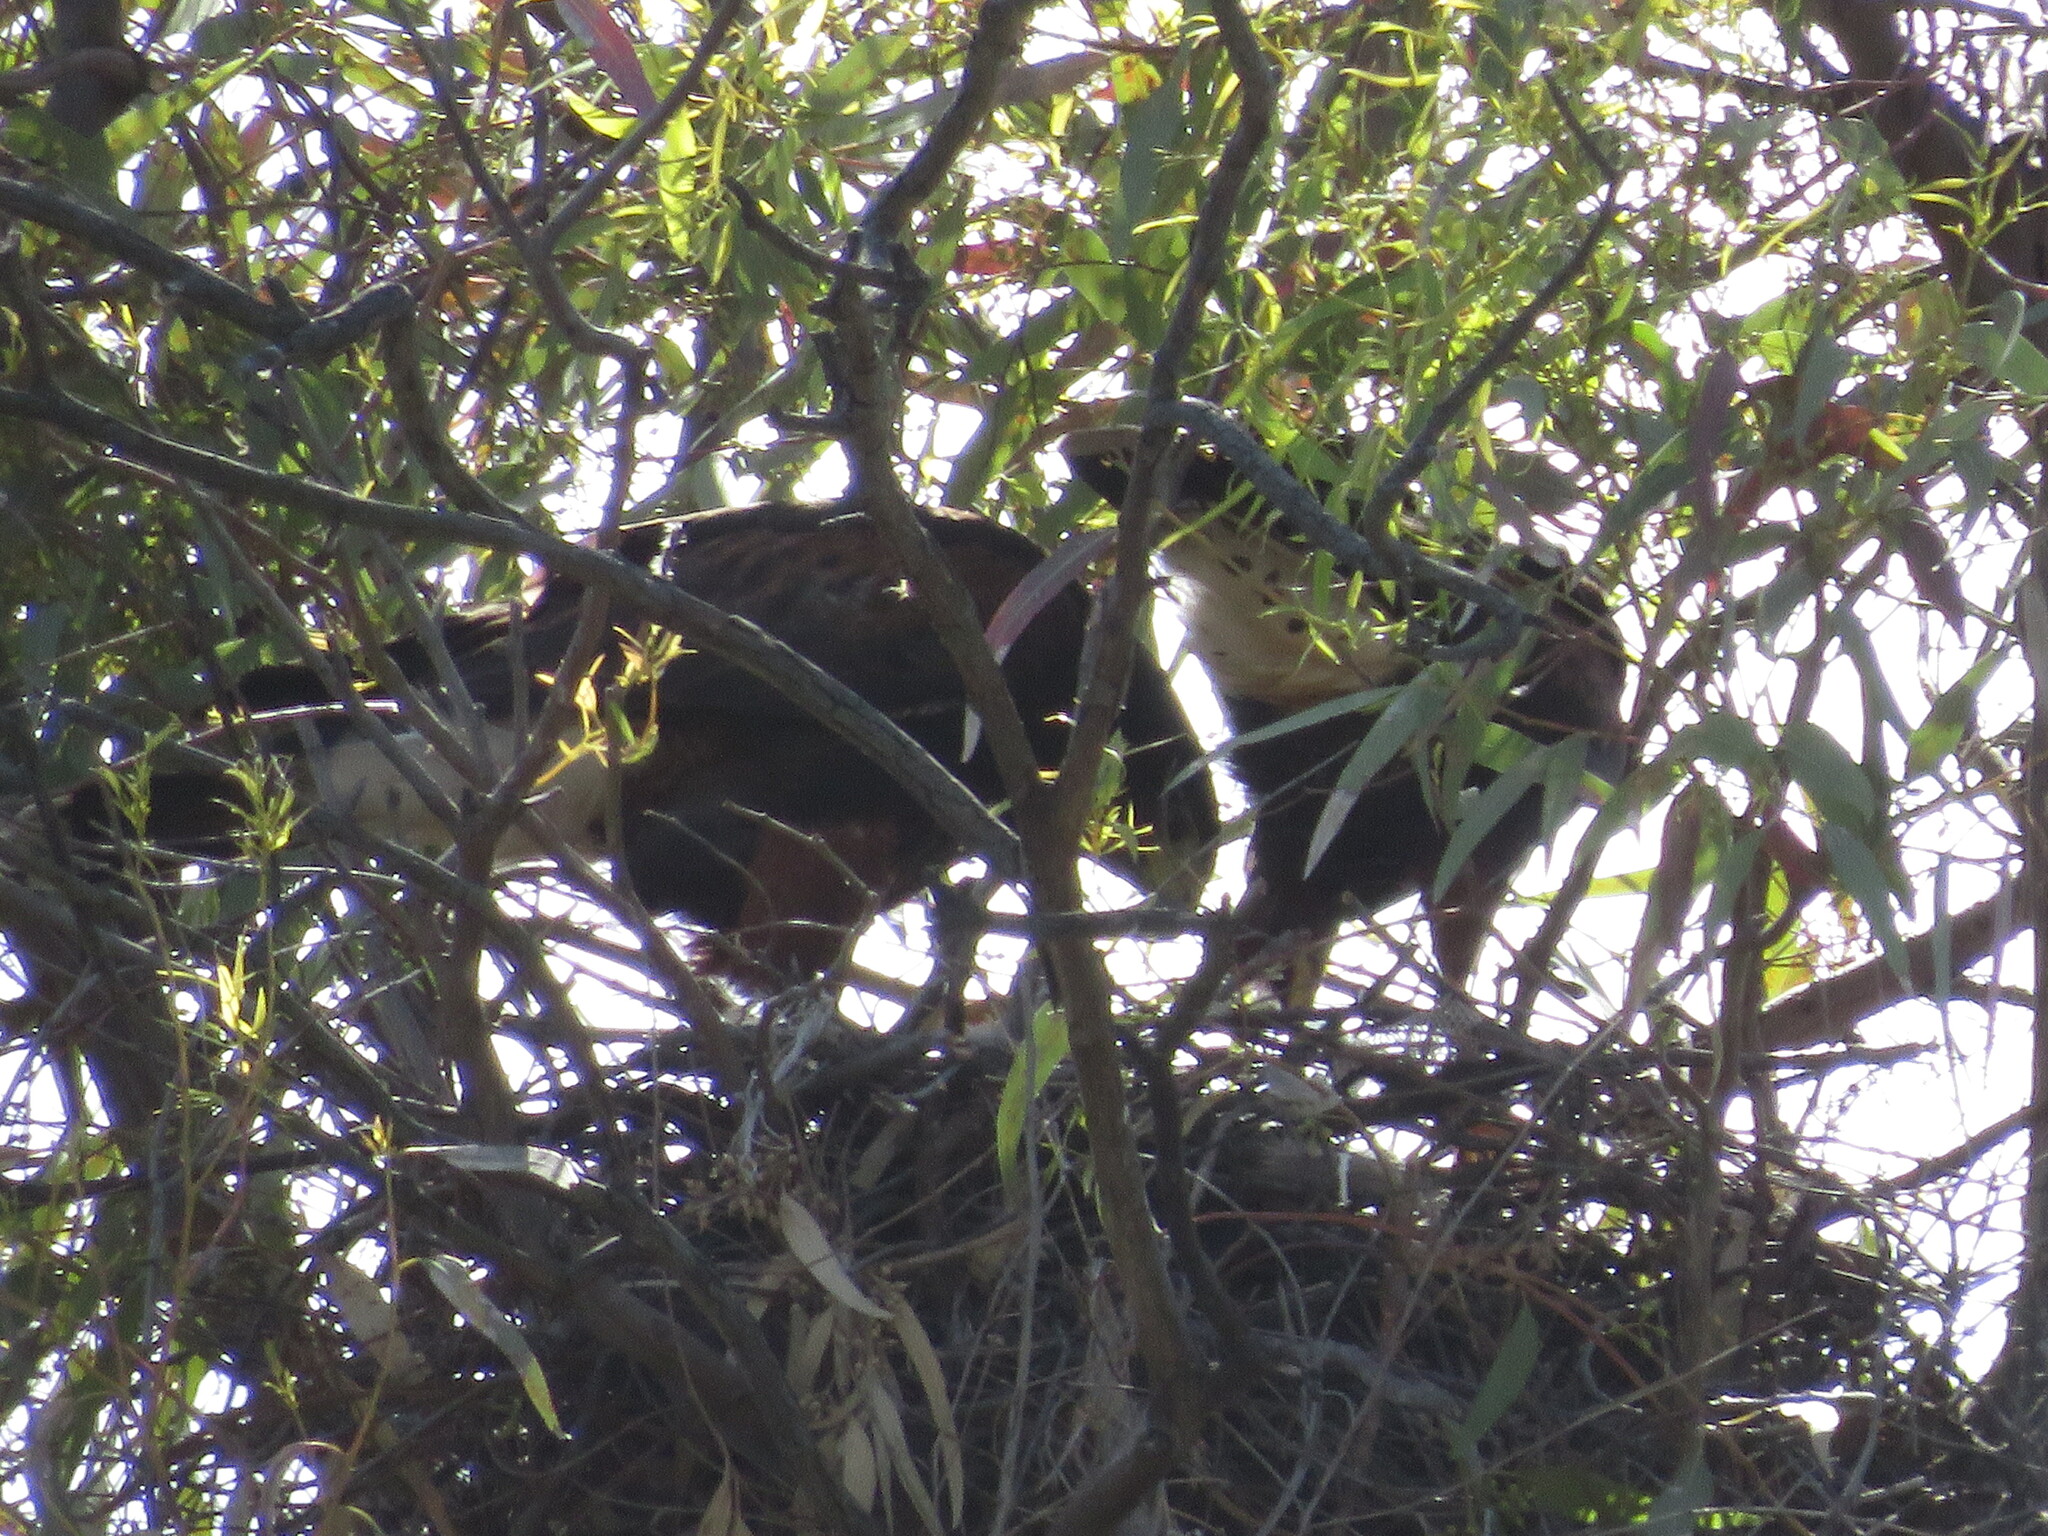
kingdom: Animalia
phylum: Chordata
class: Aves
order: Accipitriformes
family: Accipitridae
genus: Parabuteo
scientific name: Parabuteo unicinctus
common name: Harris's hawk
